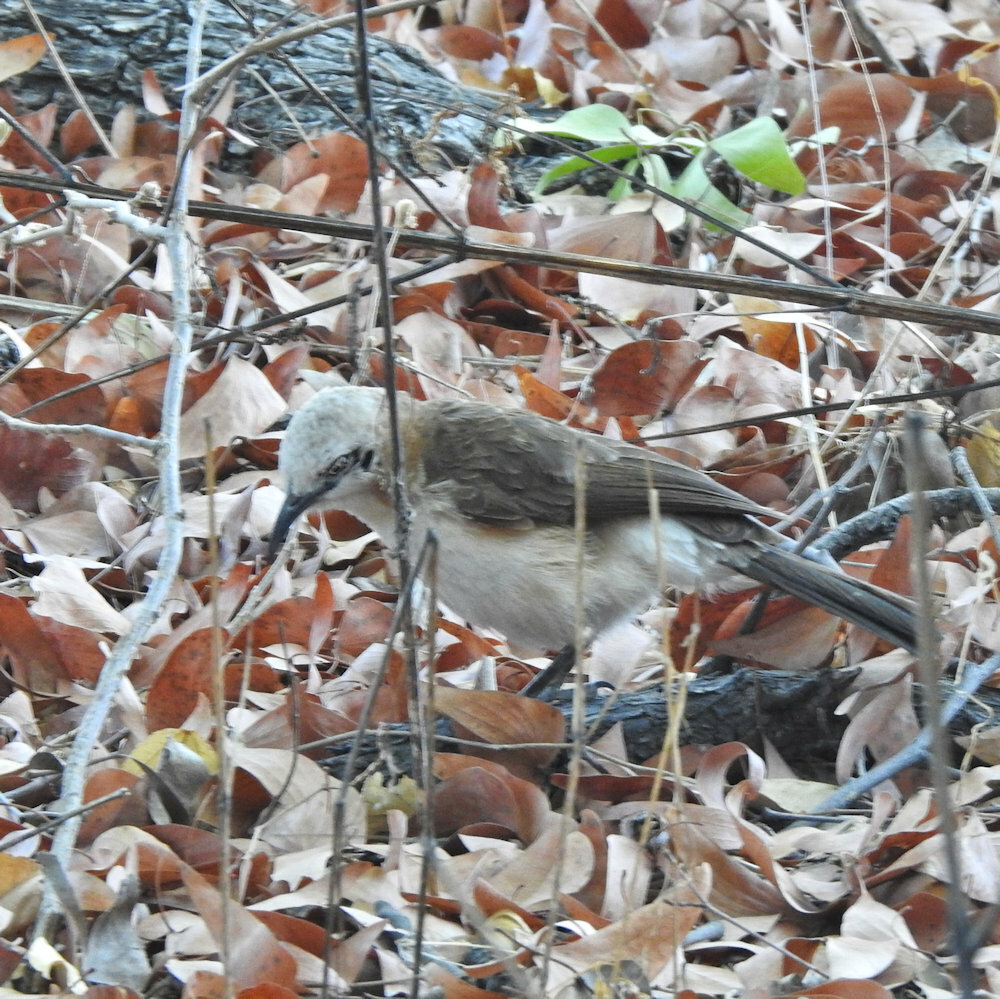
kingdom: Animalia
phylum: Chordata
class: Aves
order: Passeriformes
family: Leiothrichidae
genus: Turdoides
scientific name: Turdoides gymnogenys
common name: Bare-cheeked babbler
